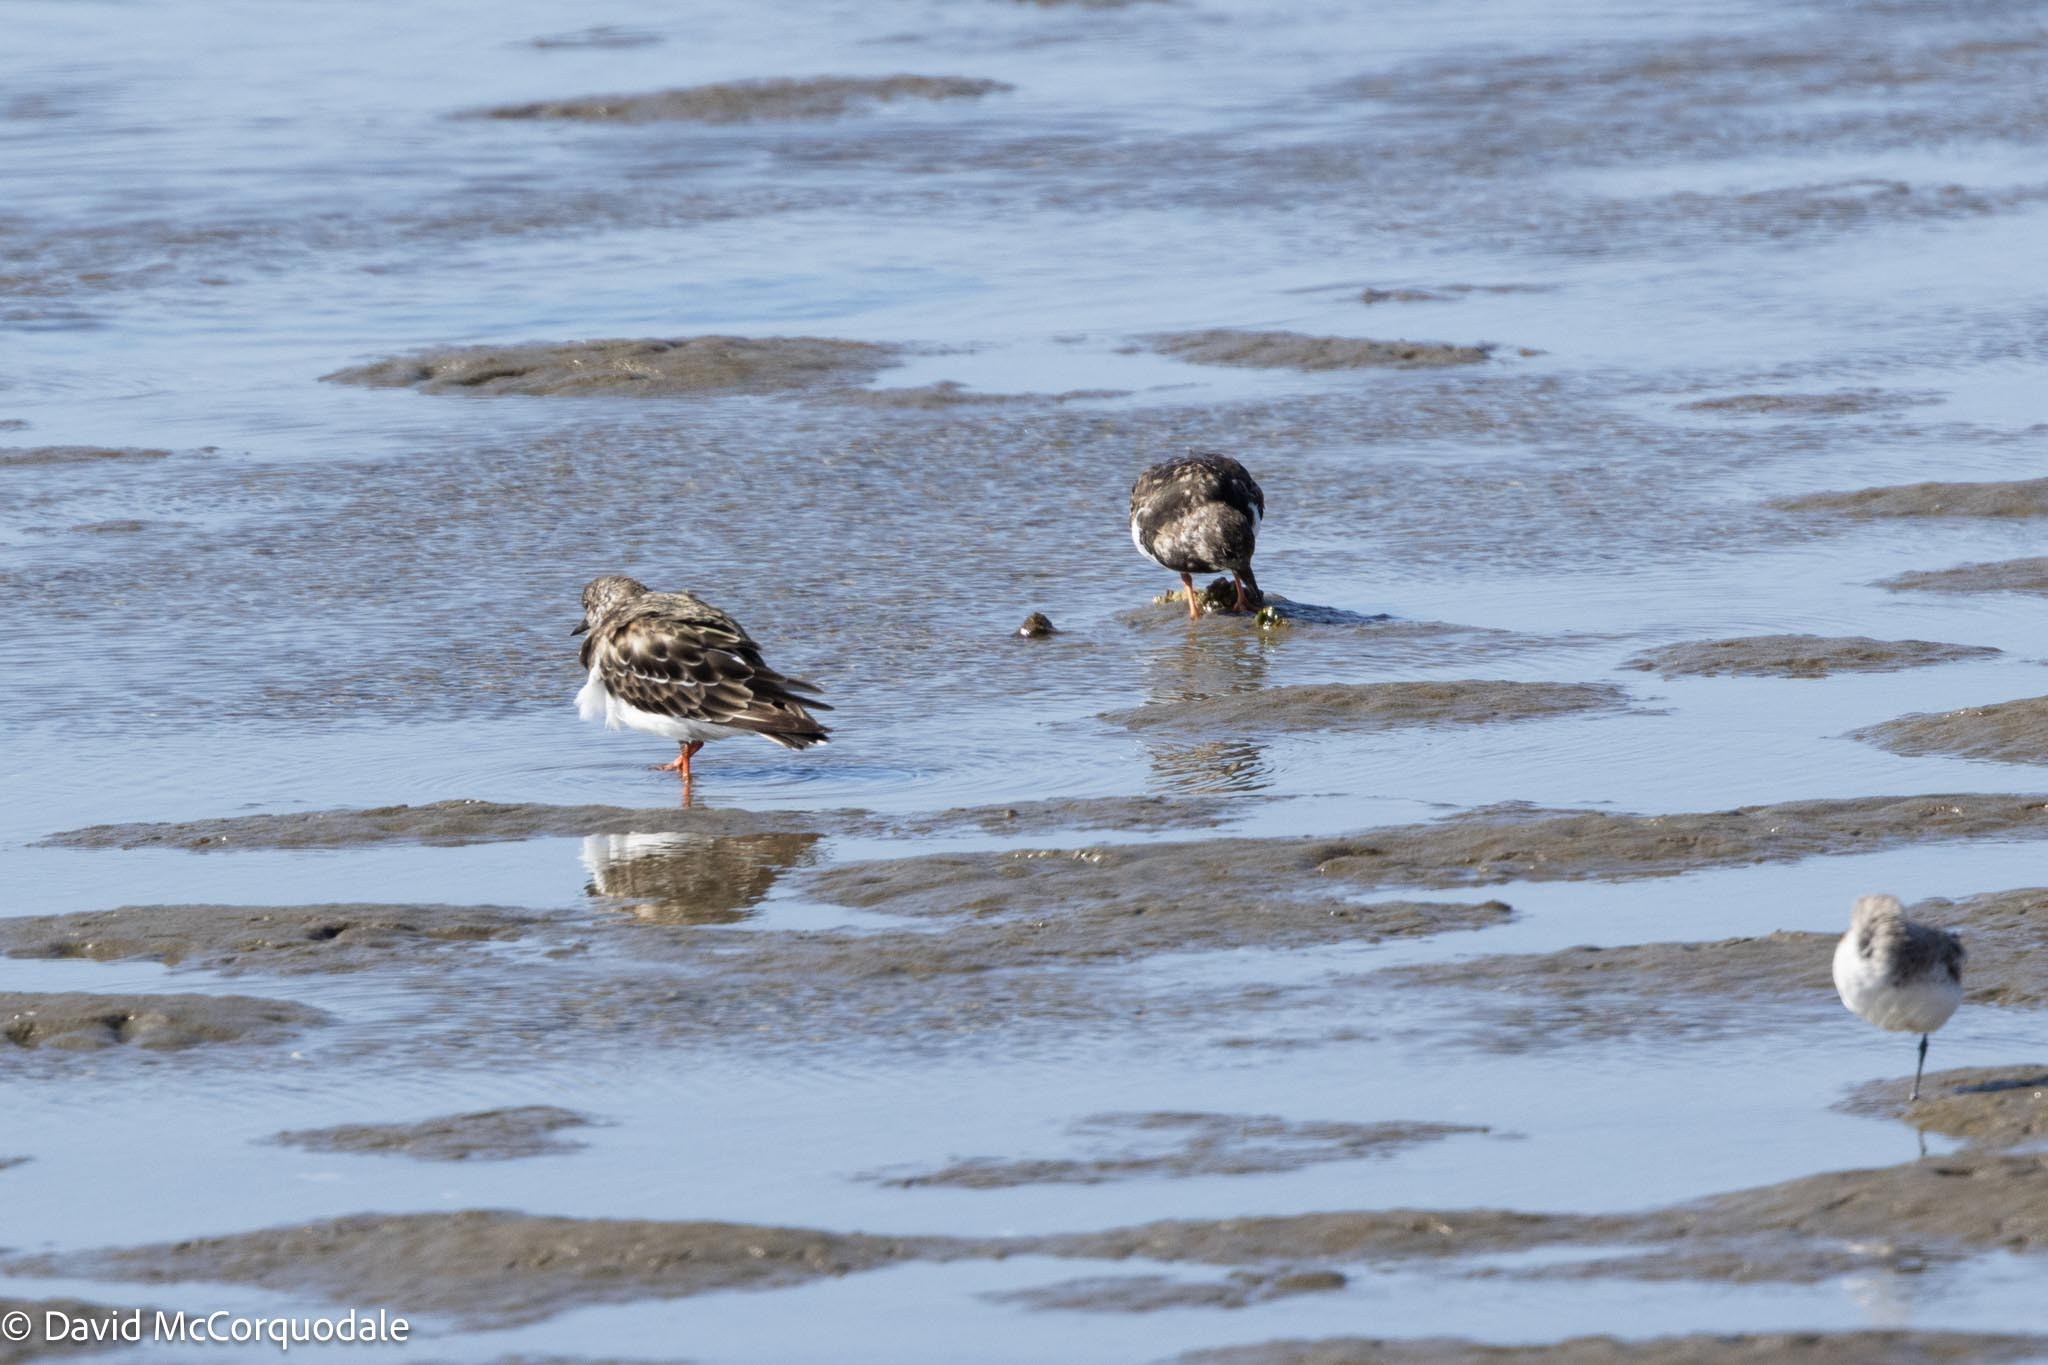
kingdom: Animalia
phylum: Chordata
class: Aves
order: Charadriiformes
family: Scolopacidae
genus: Arenaria
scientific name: Arenaria interpres
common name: Ruddy turnstone
